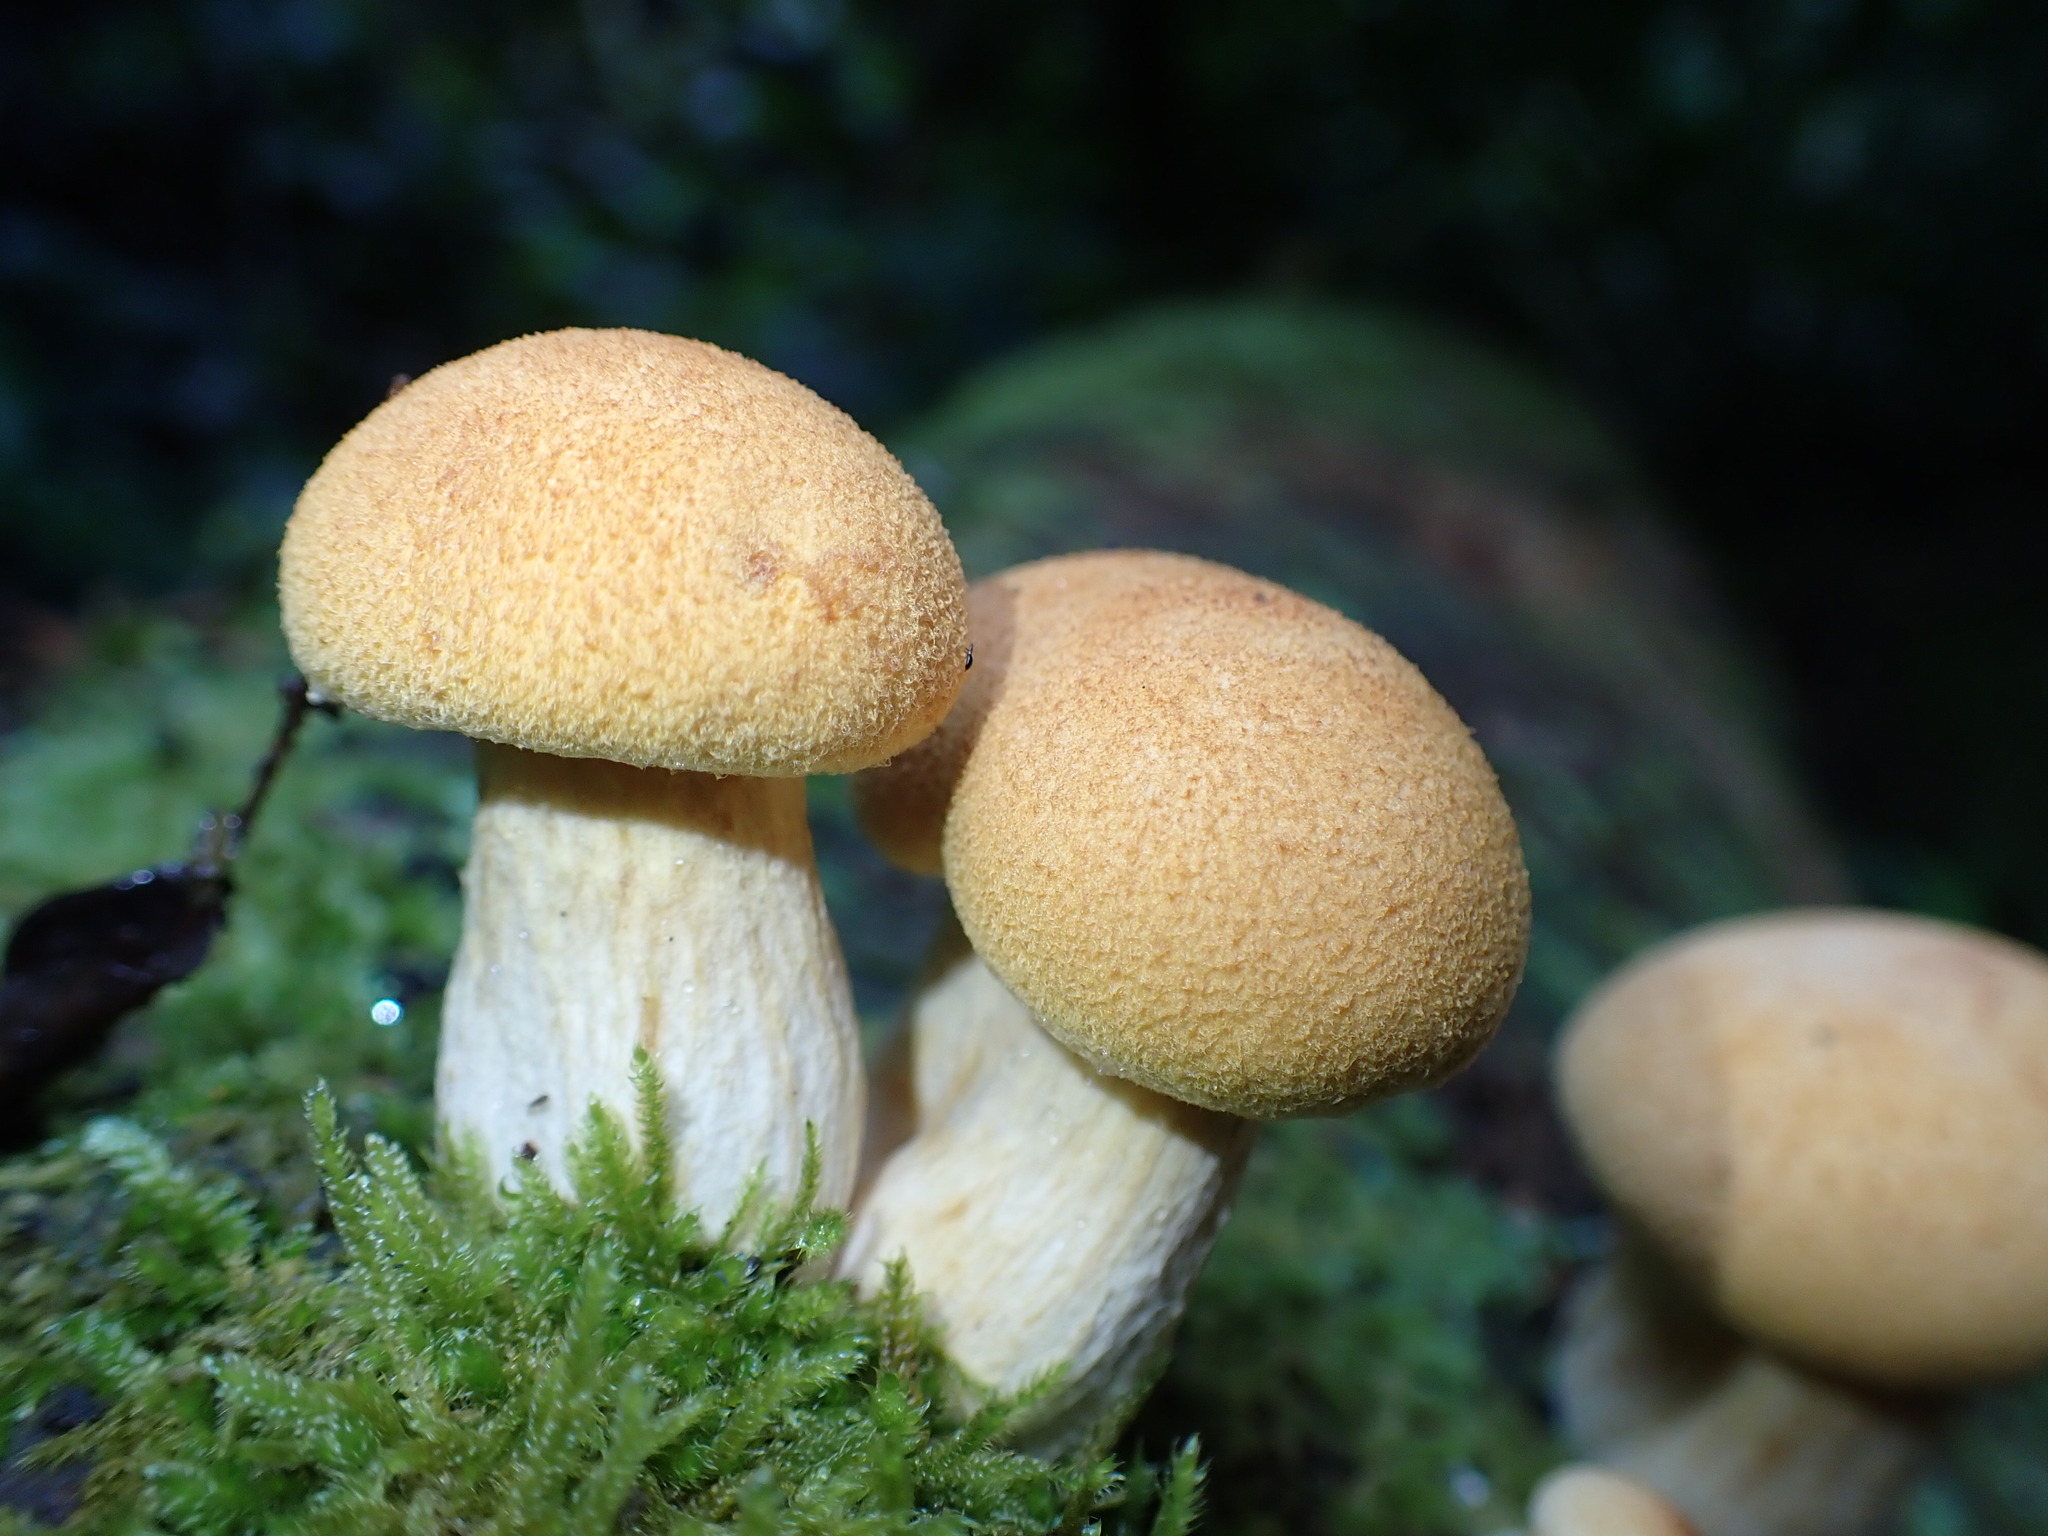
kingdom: Fungi
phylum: Basidiomycota
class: Agaricomycetes
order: Agaricales
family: Hymenogastraceae
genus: Gymnopilus
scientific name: Gymnopilus junonius
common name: Spectacular rustgill
